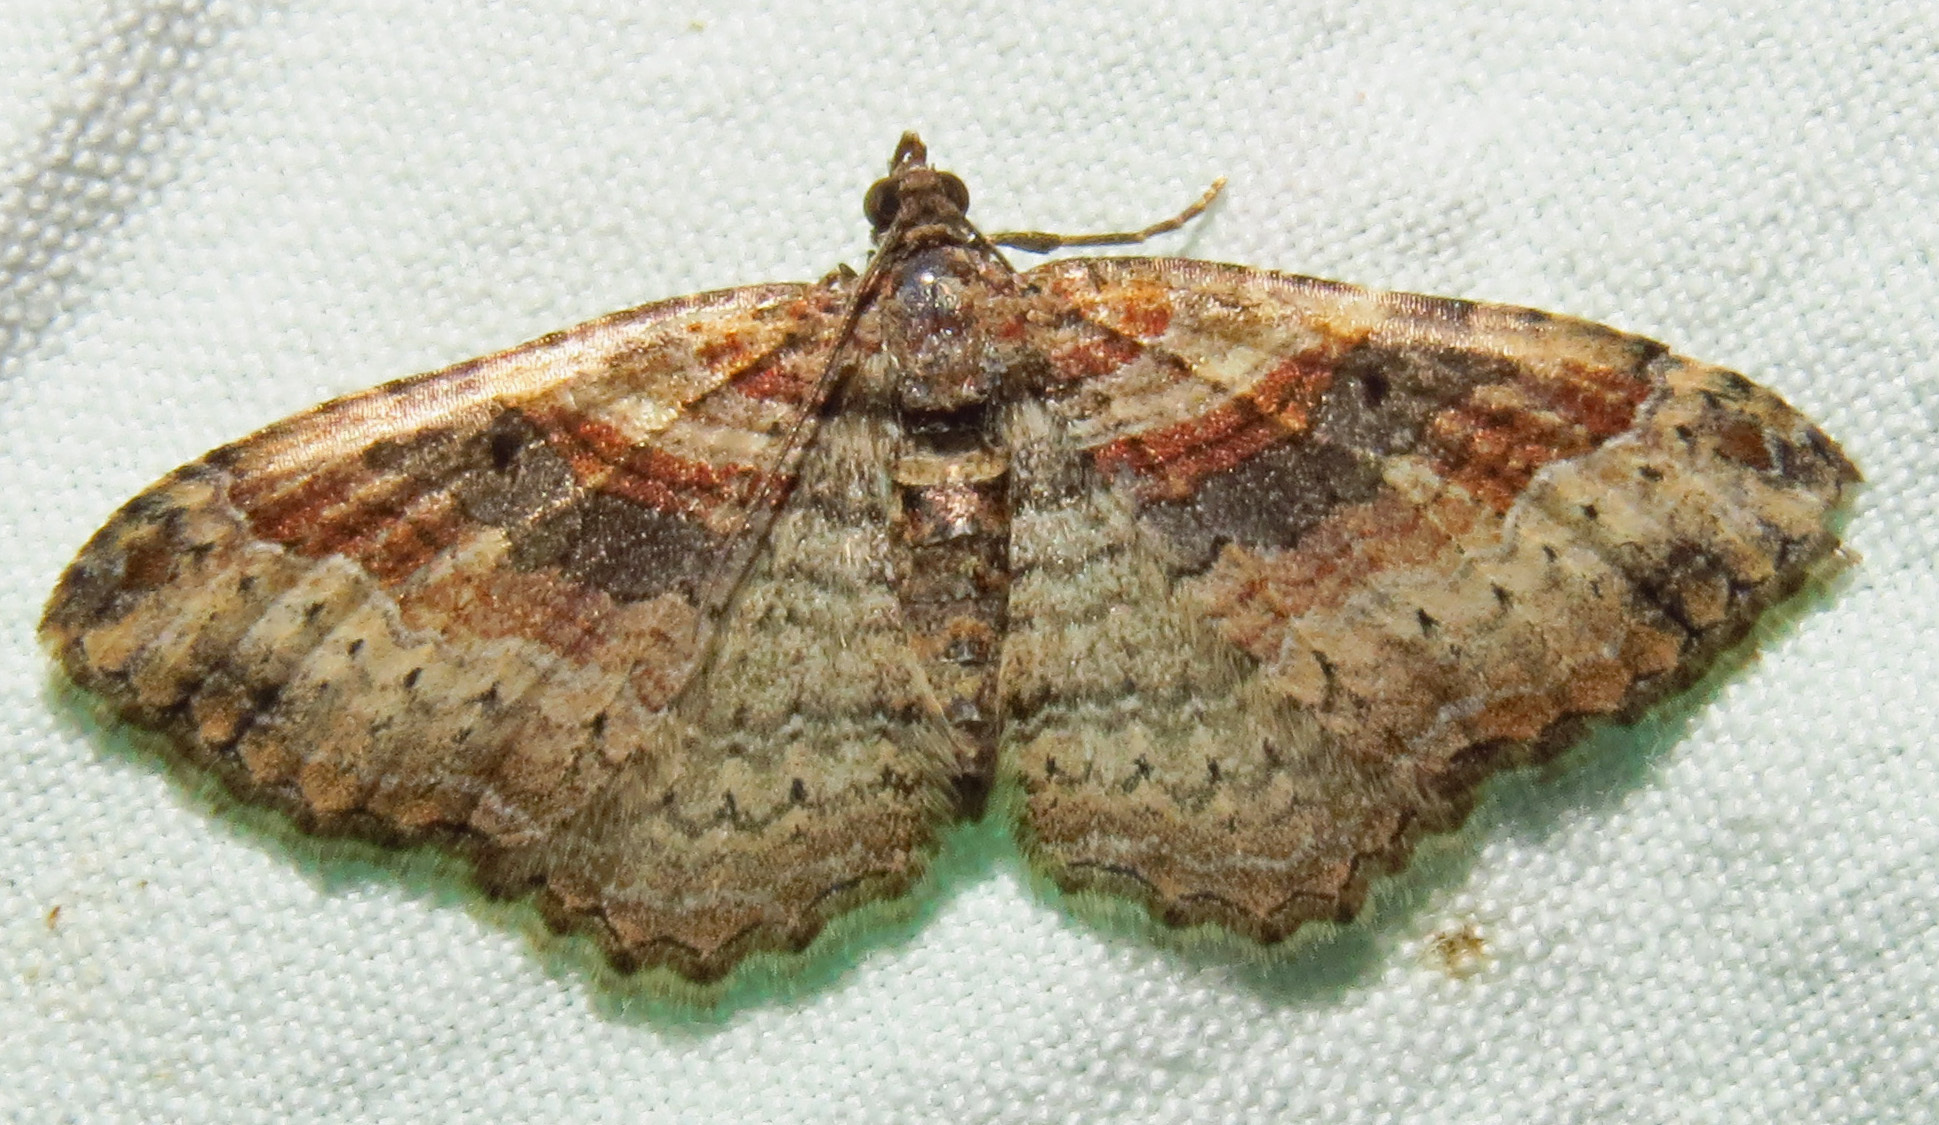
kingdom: Animalia
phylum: Arthropoda
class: Insecta
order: Lepidoptera
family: Geometridae
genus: Costaconvexa
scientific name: Costaconvexa centrostrigaria
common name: Bent-line carpet
